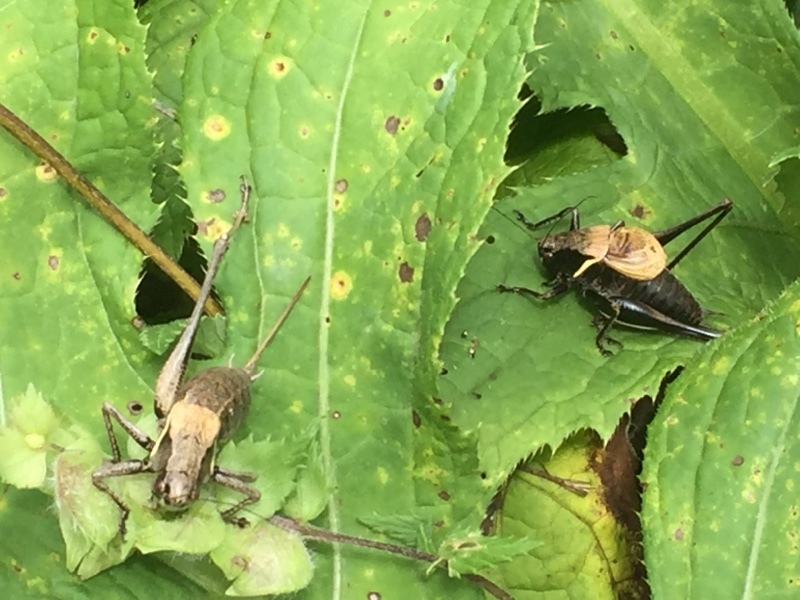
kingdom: Animalia
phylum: Arthropoda
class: Insecta
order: Orthoptera
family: Tettigoniidae
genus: Pholidoptera
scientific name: Pholidoptera aptera
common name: Alpine dark bush-cricket
